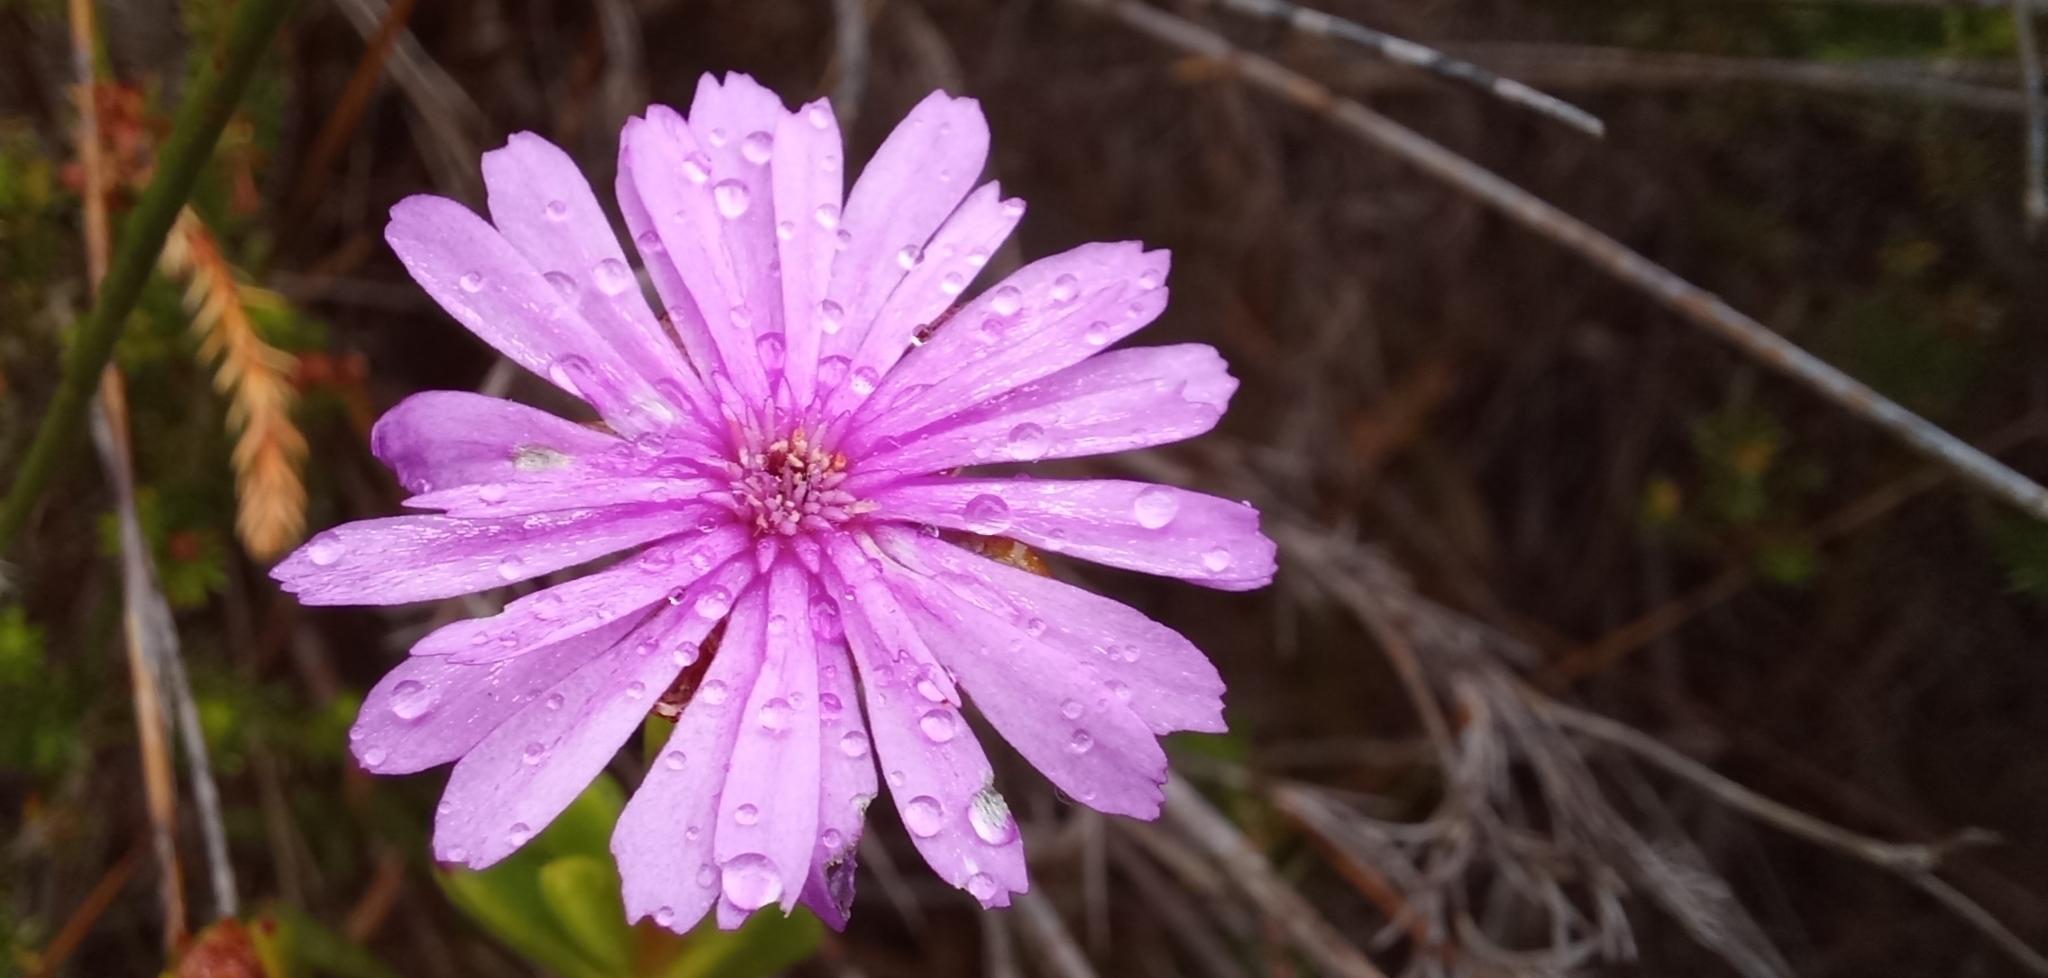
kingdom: Plantae
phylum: Tracheophyta
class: Magnoliopsida
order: Caryophyllales
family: Aizoaceae
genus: Erepsia
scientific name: Erepsia inclaudens
